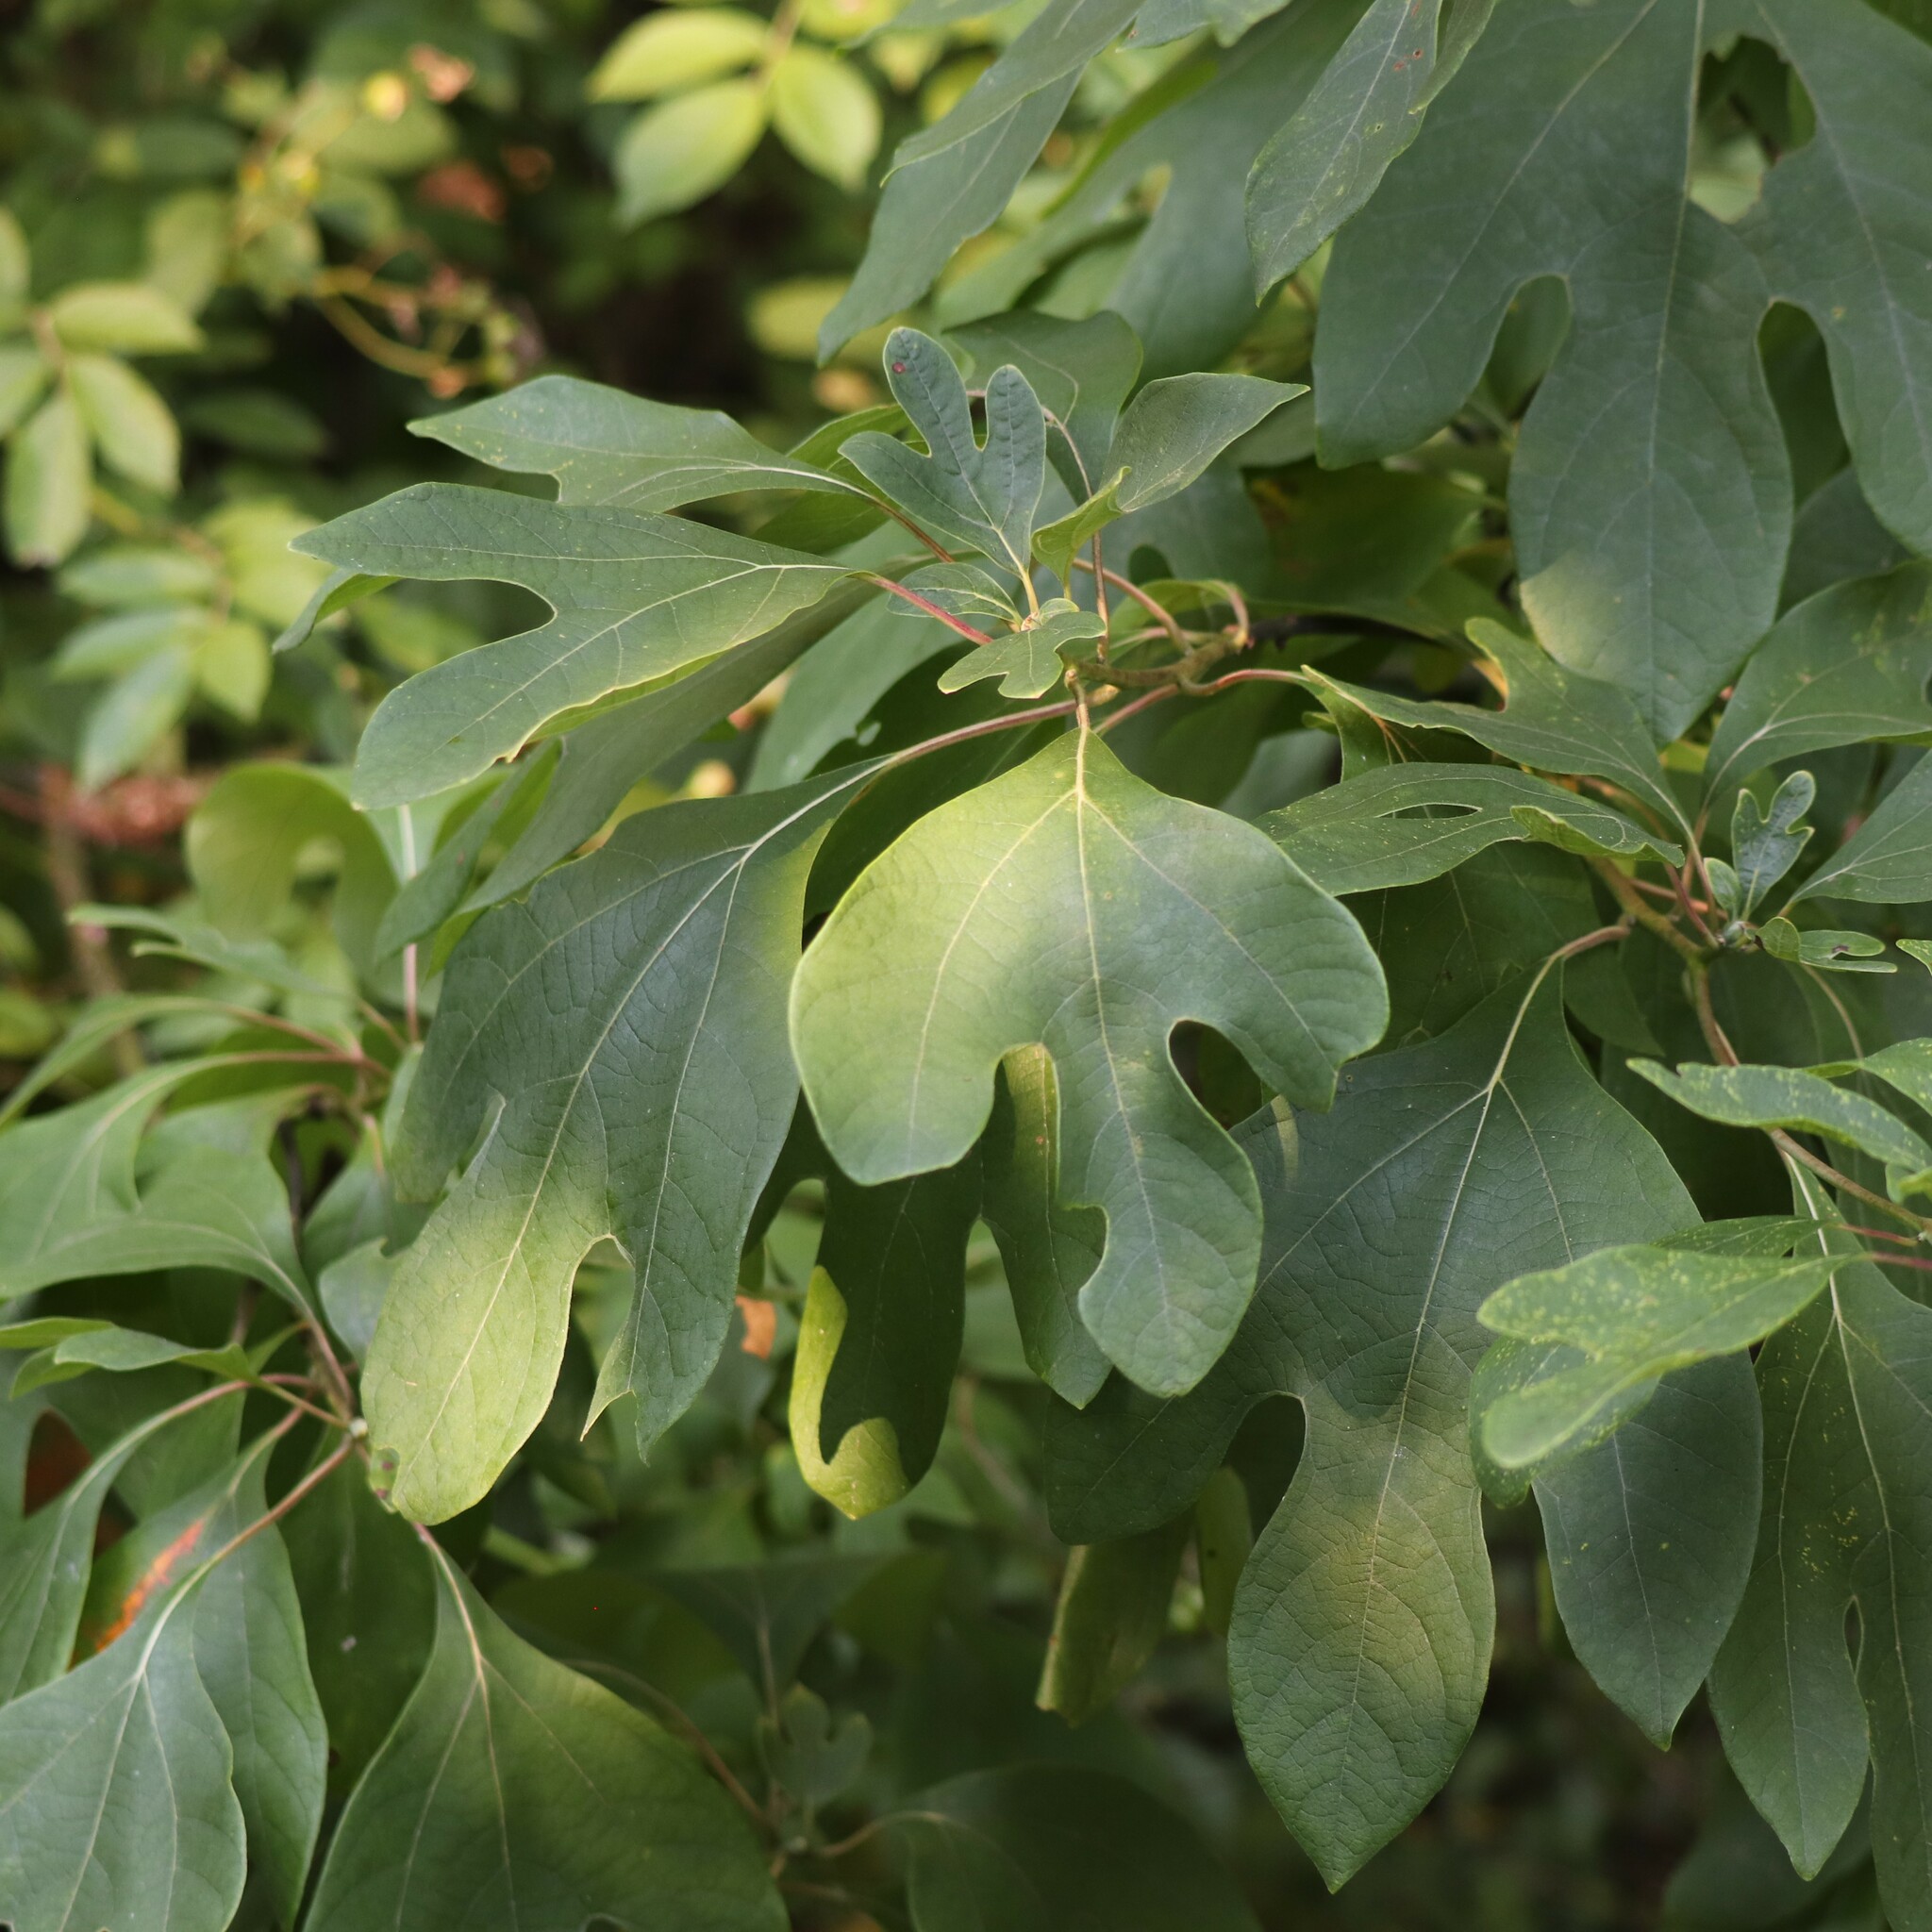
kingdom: Plantae
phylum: Tracheophyta
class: Magnoliopsida
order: Laurales
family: Lauraceae
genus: Sassafras
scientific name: Sassafras albidum
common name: Sassafras
